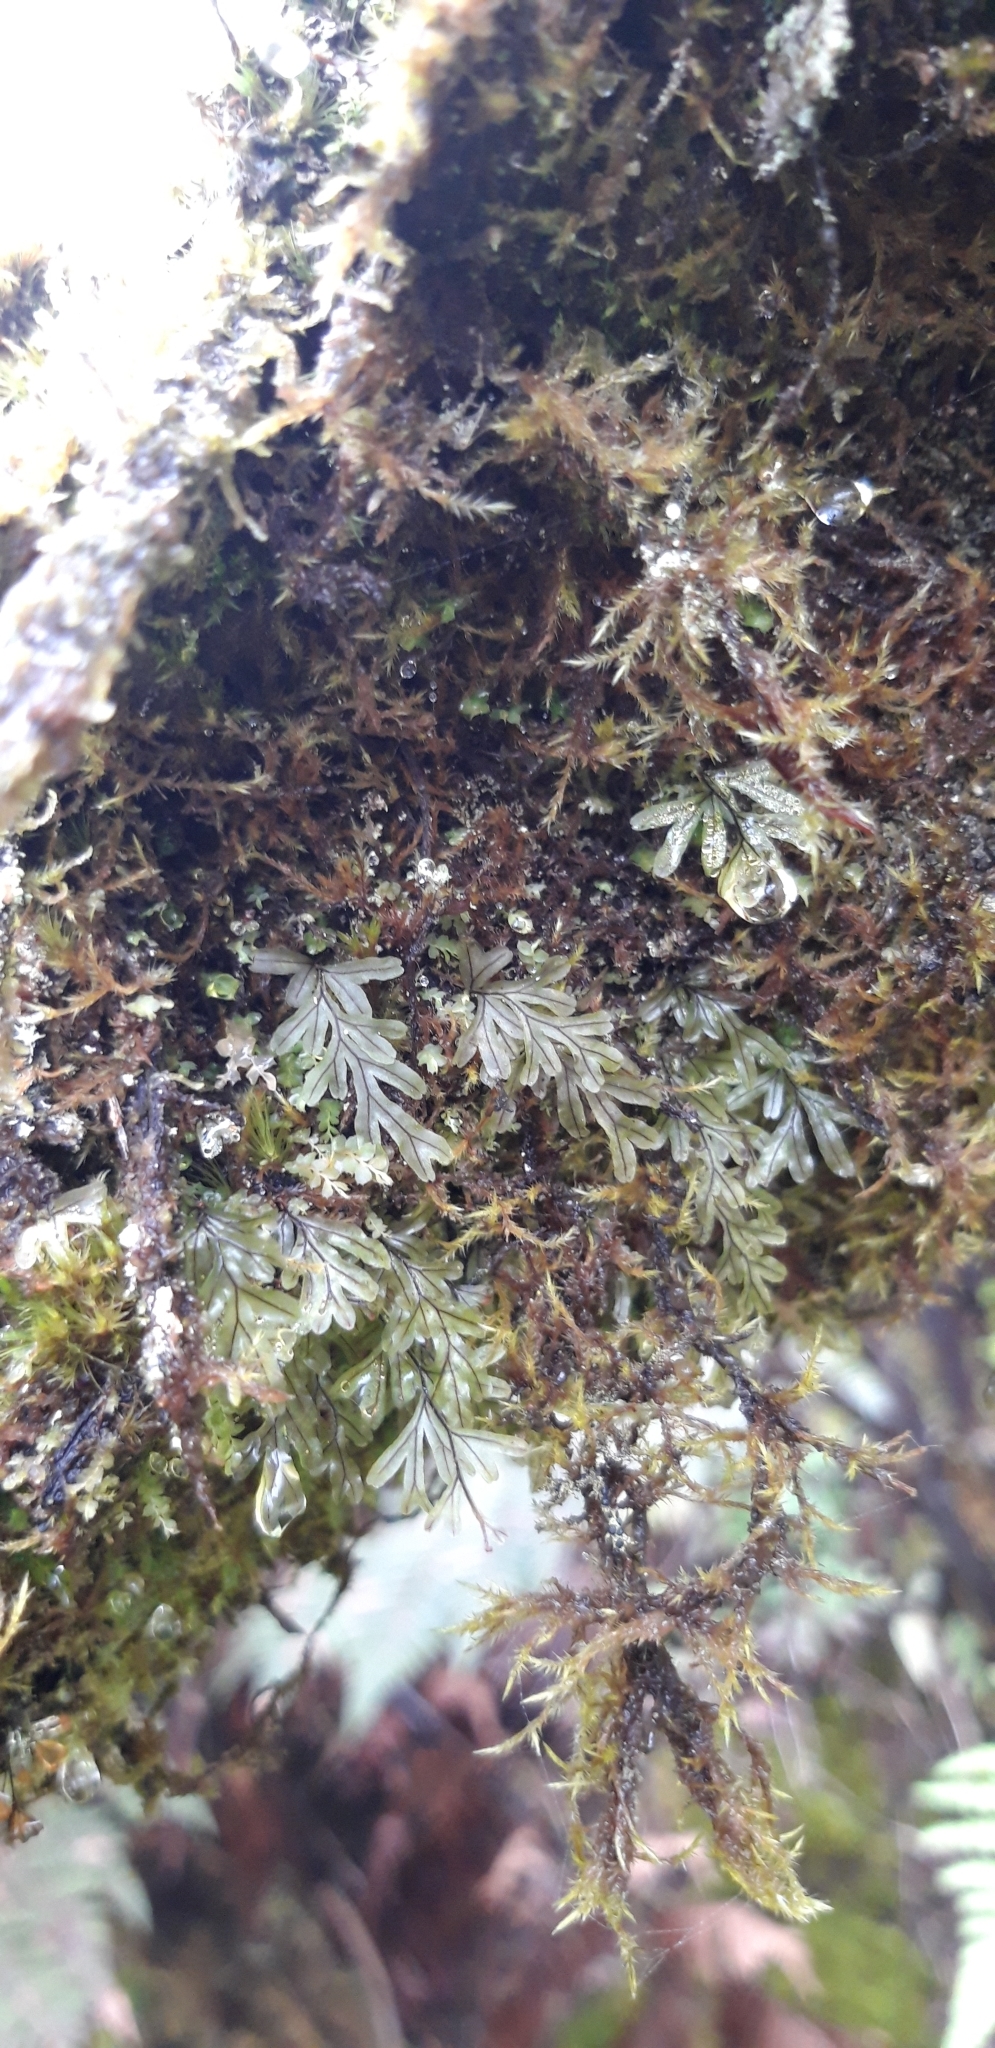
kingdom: Plantae
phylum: Tracheophyta
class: Polypodiopsida
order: Hymenophyllales
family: Hymenophyllaceae
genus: Hymenophyllum
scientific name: Hymenophyllum capillaceum
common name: St helena filmy fern
